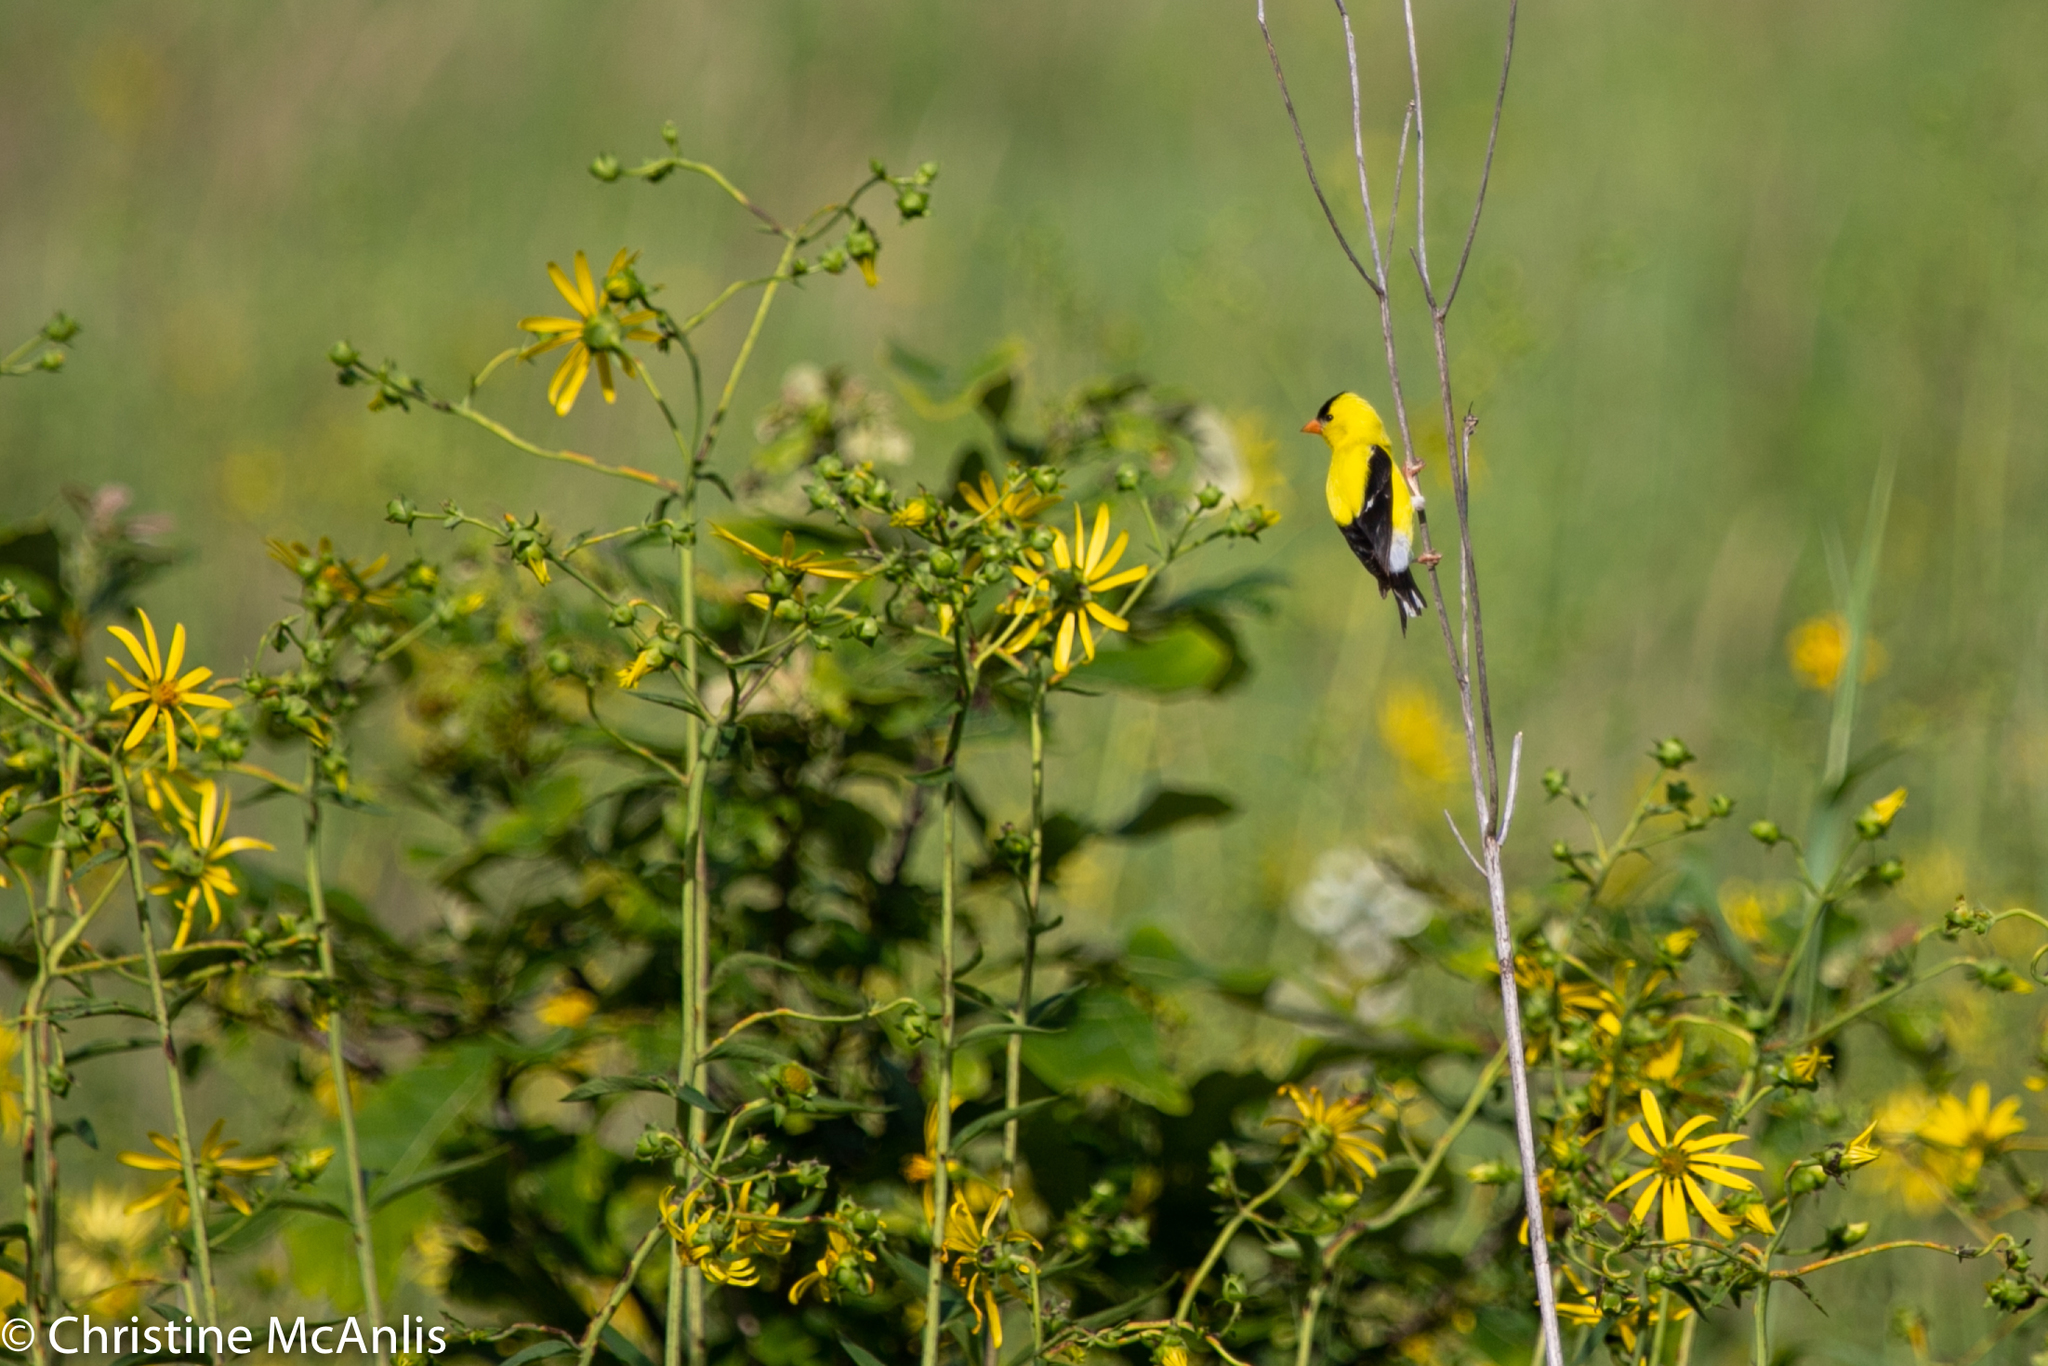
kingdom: Animalia
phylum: Chordata
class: Aves
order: Passeriformes
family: Fringillidae
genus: Spinus
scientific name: Spinus tristis
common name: American goldfinch
